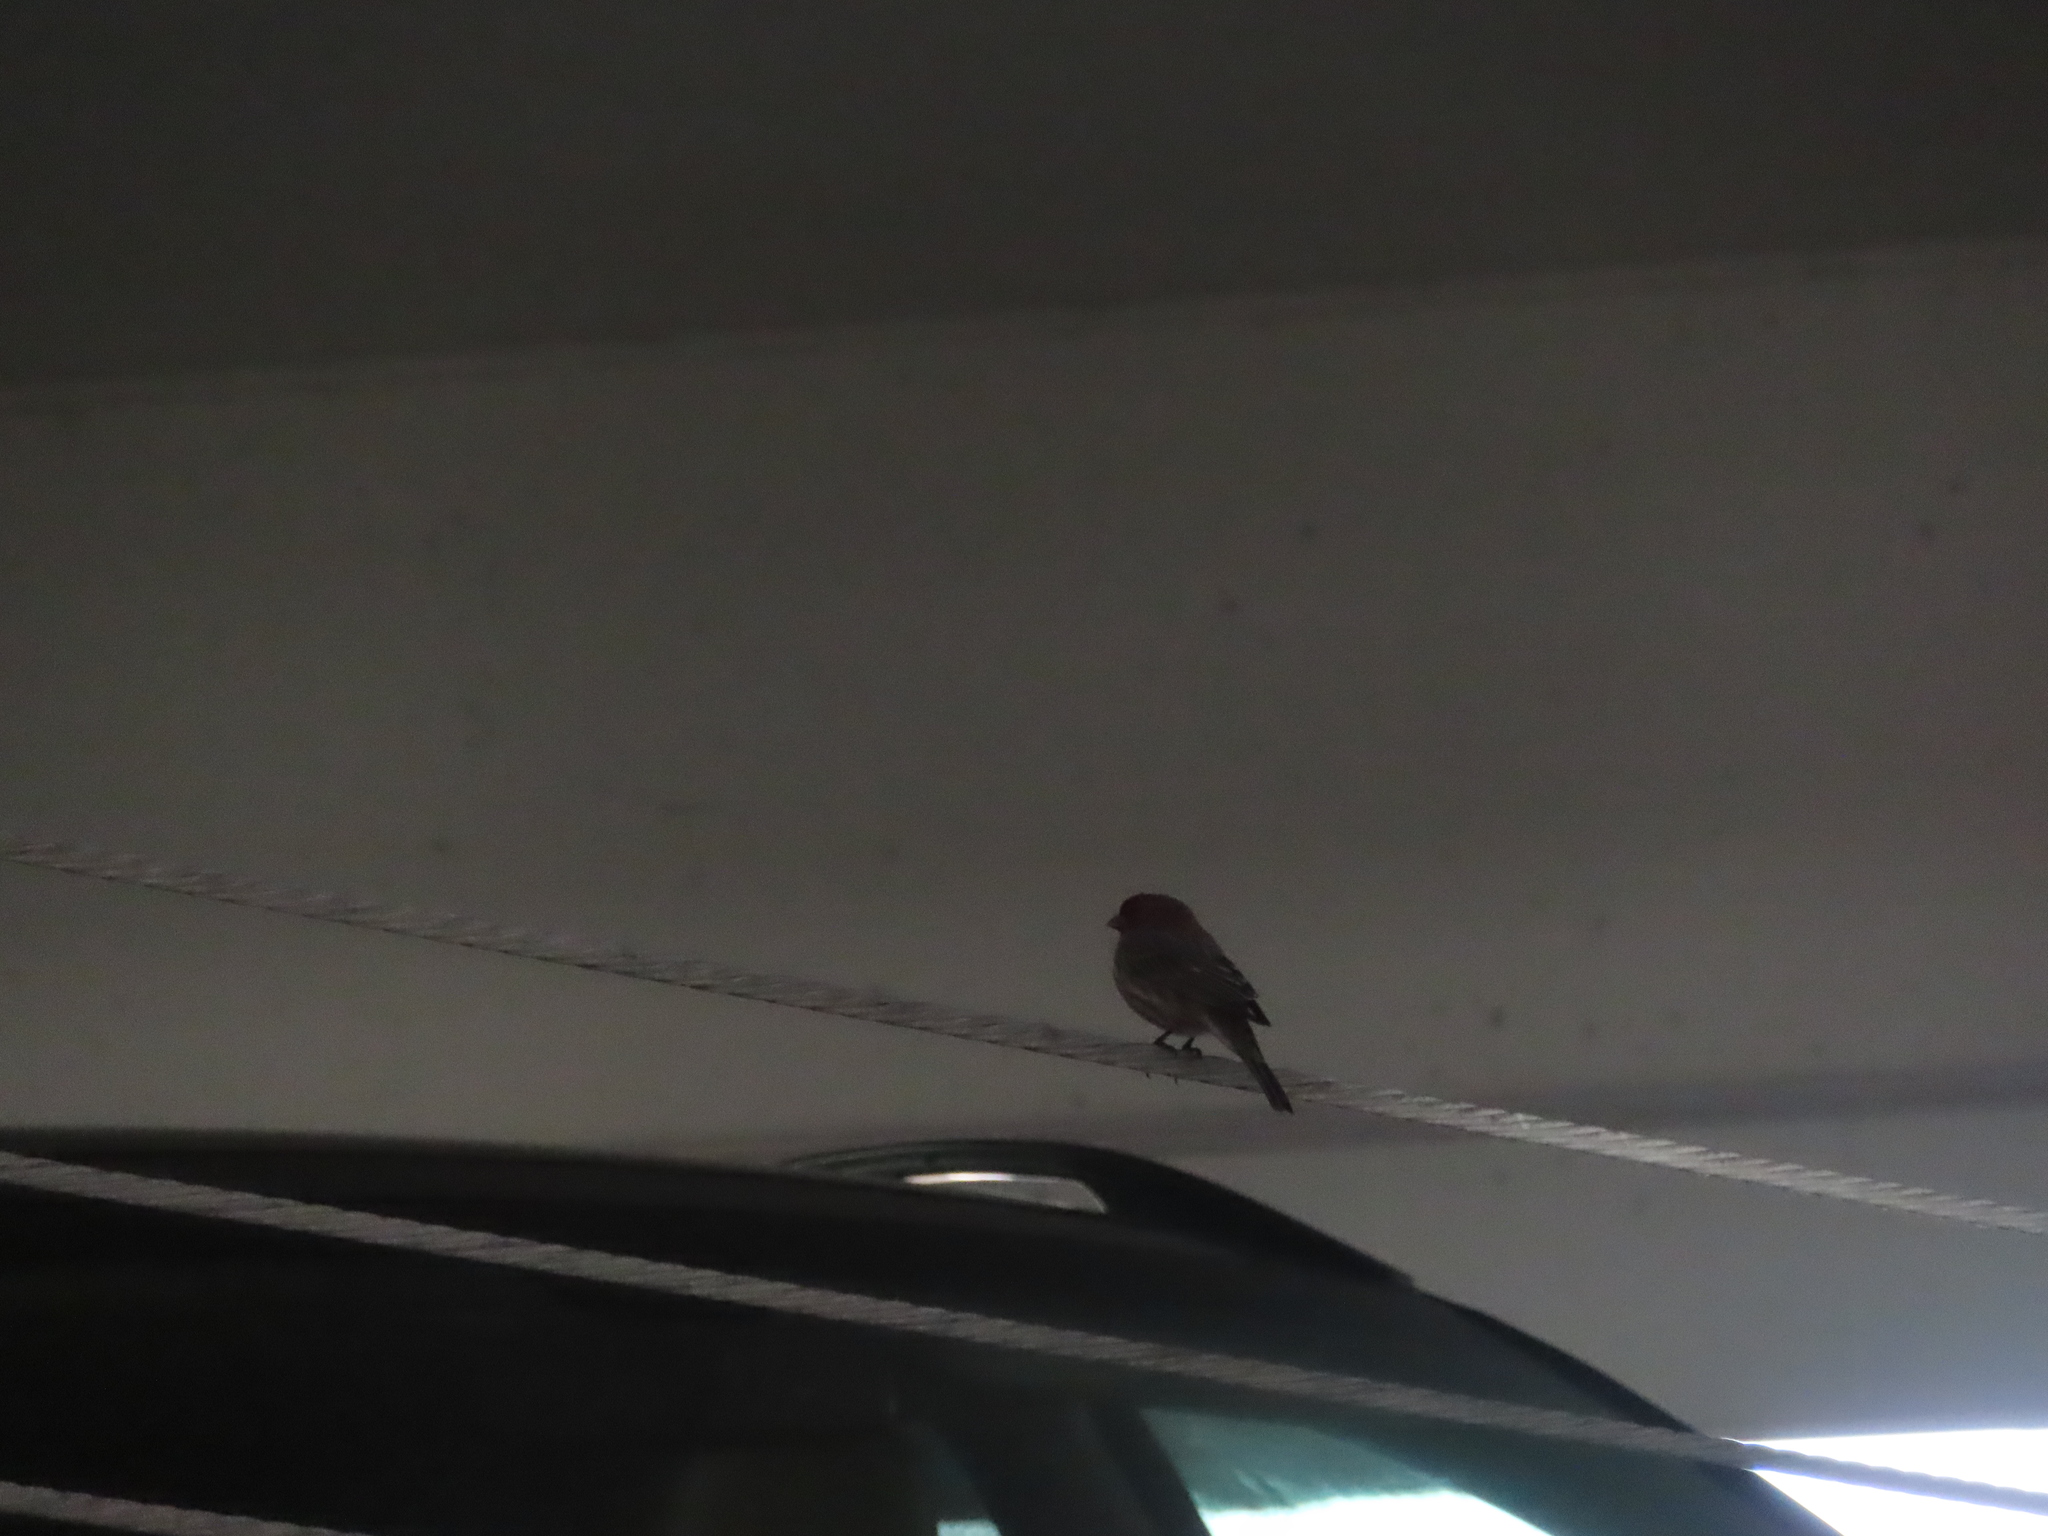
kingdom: Animalia
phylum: Chordata
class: Aves
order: Passeriformes
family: Fringillidae
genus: Haemorhous
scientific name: Haemorhous mexicanus
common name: House finch
